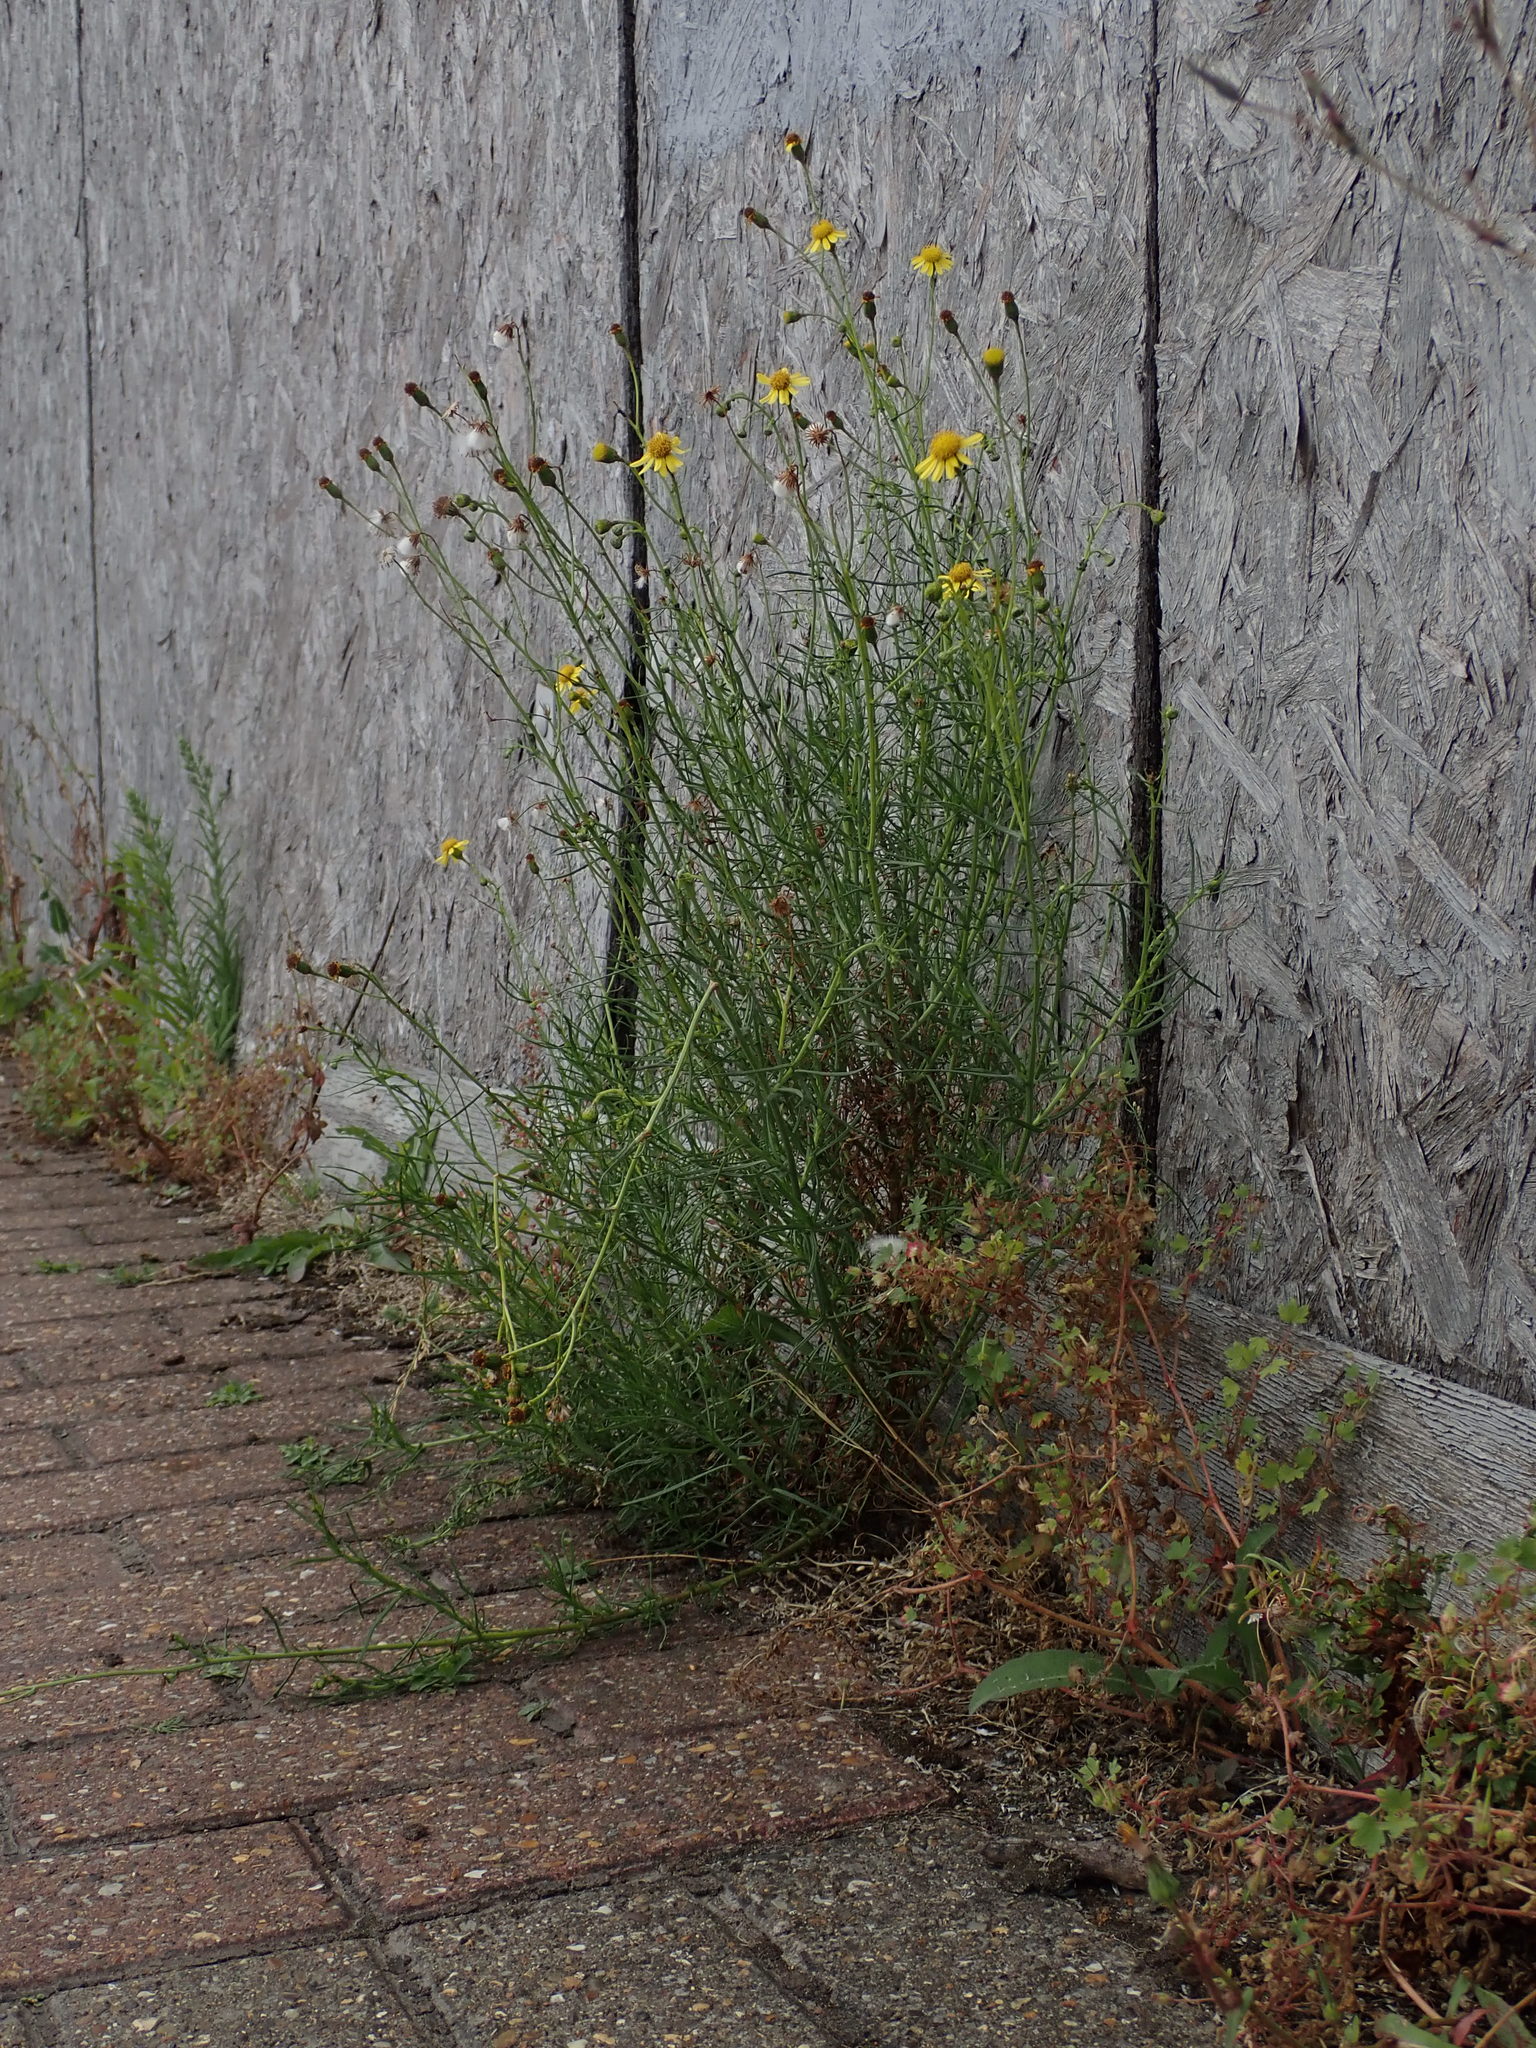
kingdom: Plantae
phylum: Tracheophyta
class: Magnoliopsida
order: Asterales
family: Asteraceae
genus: Senecio
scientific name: Senecio inaequidens
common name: Narrow-leaved ragwort
